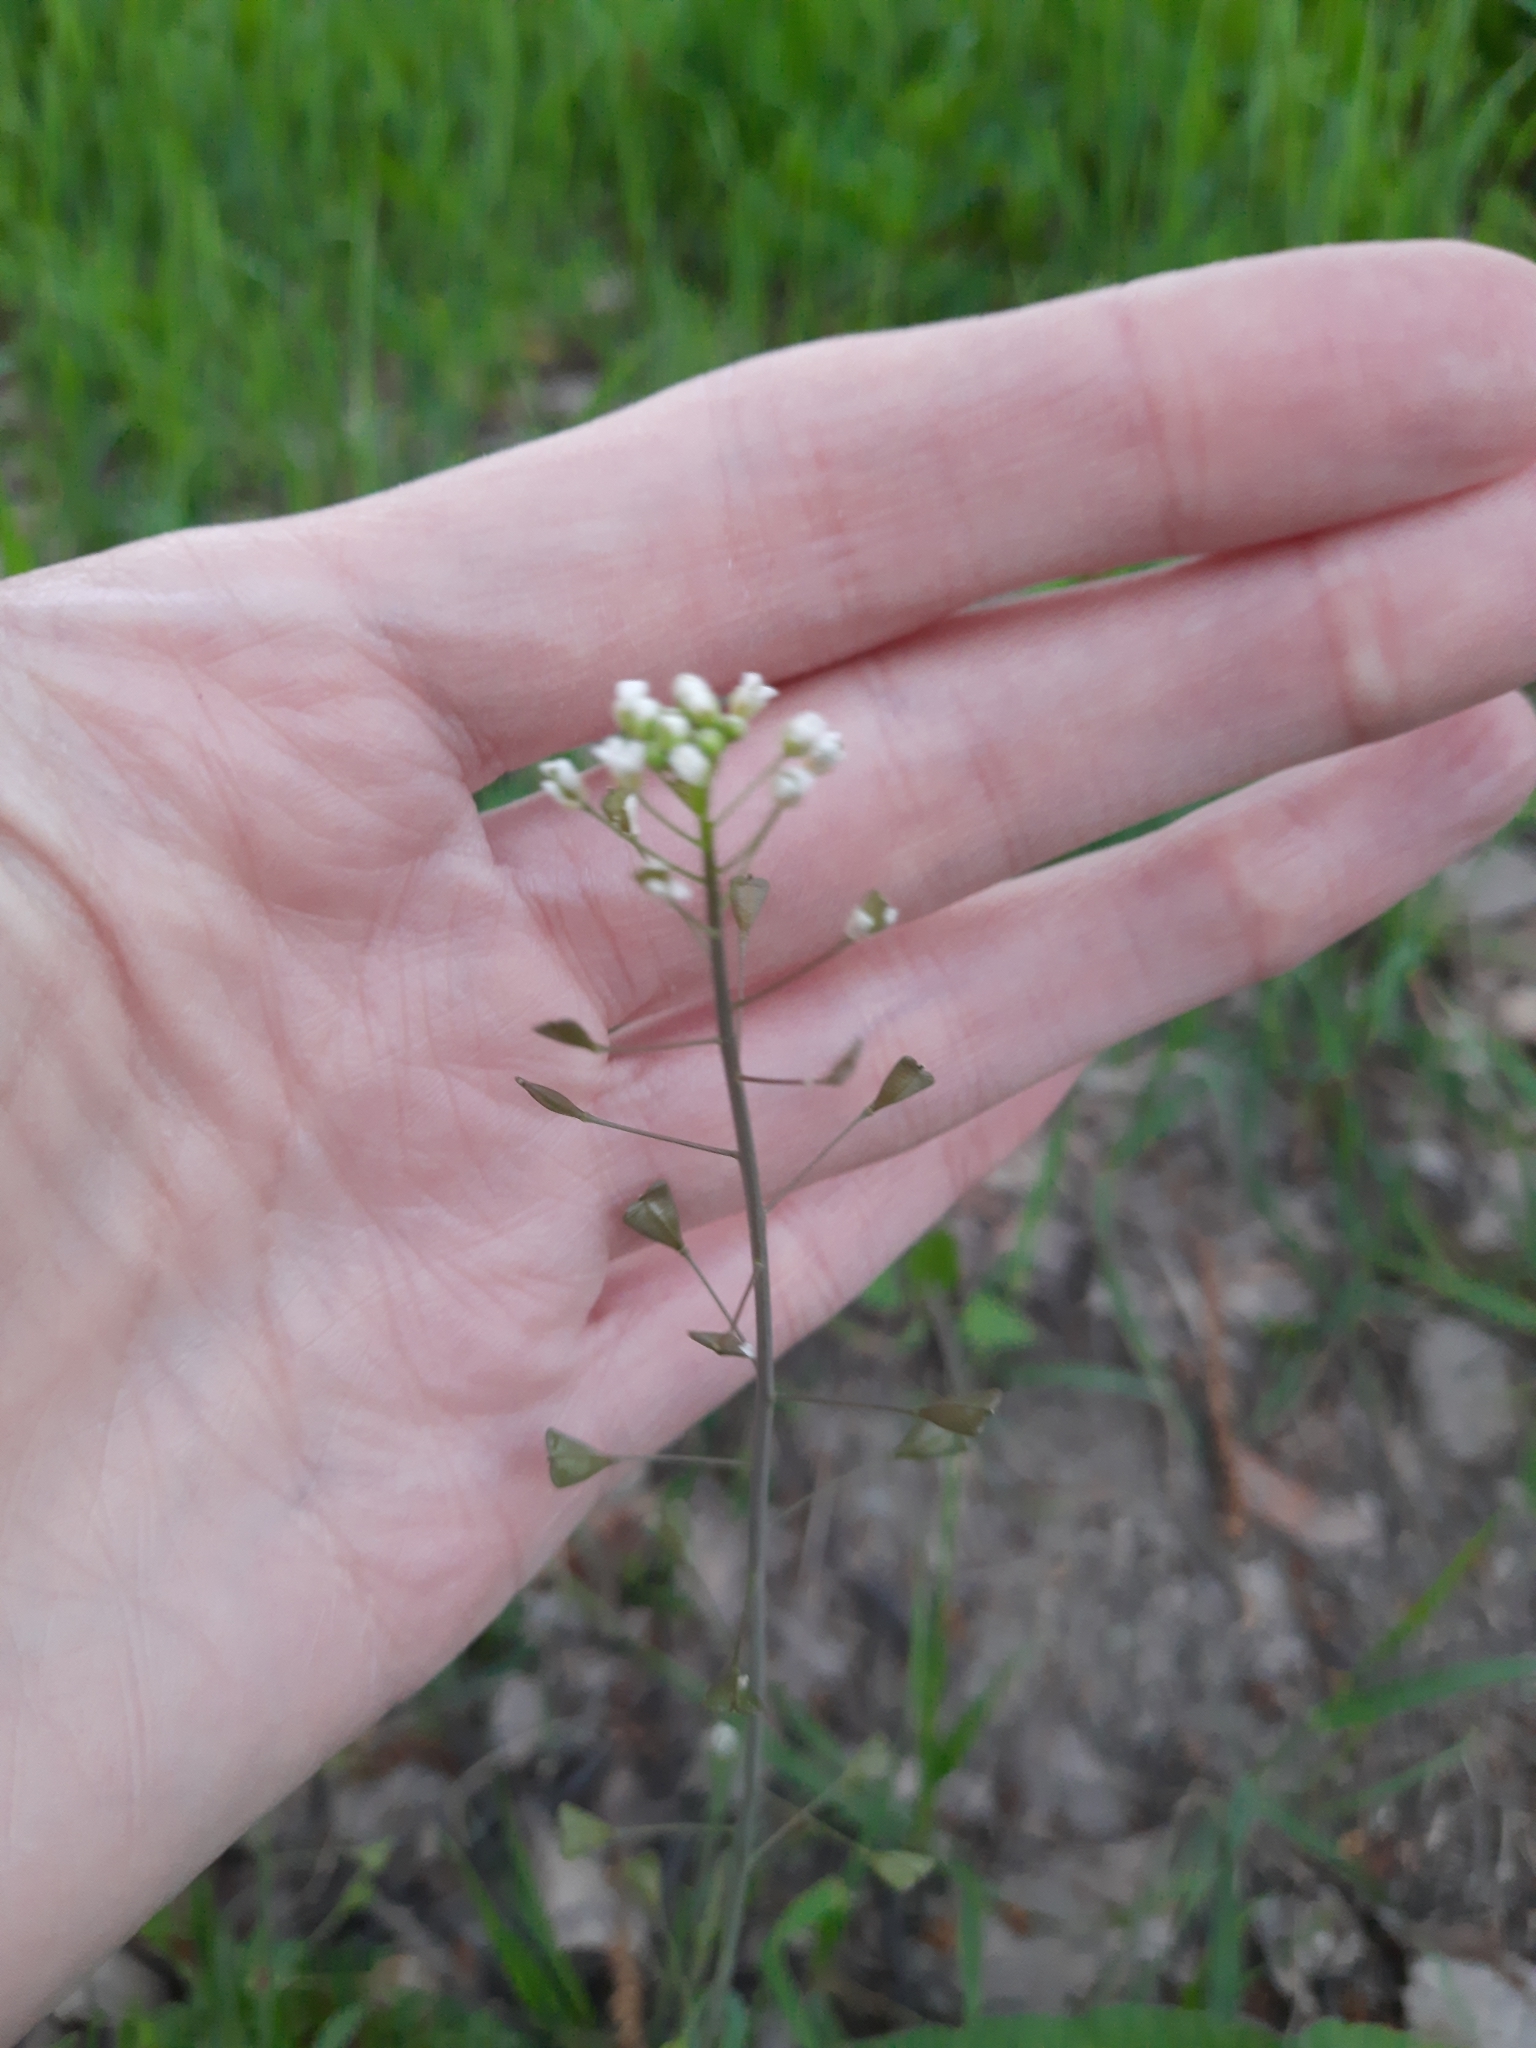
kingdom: Plantae
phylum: Tracheophyta
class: Magnoliopsida
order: Brassicales
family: Brassicaceae
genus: Capsella
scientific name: Capsella bursa-pastoris
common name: Shepherd's purse
